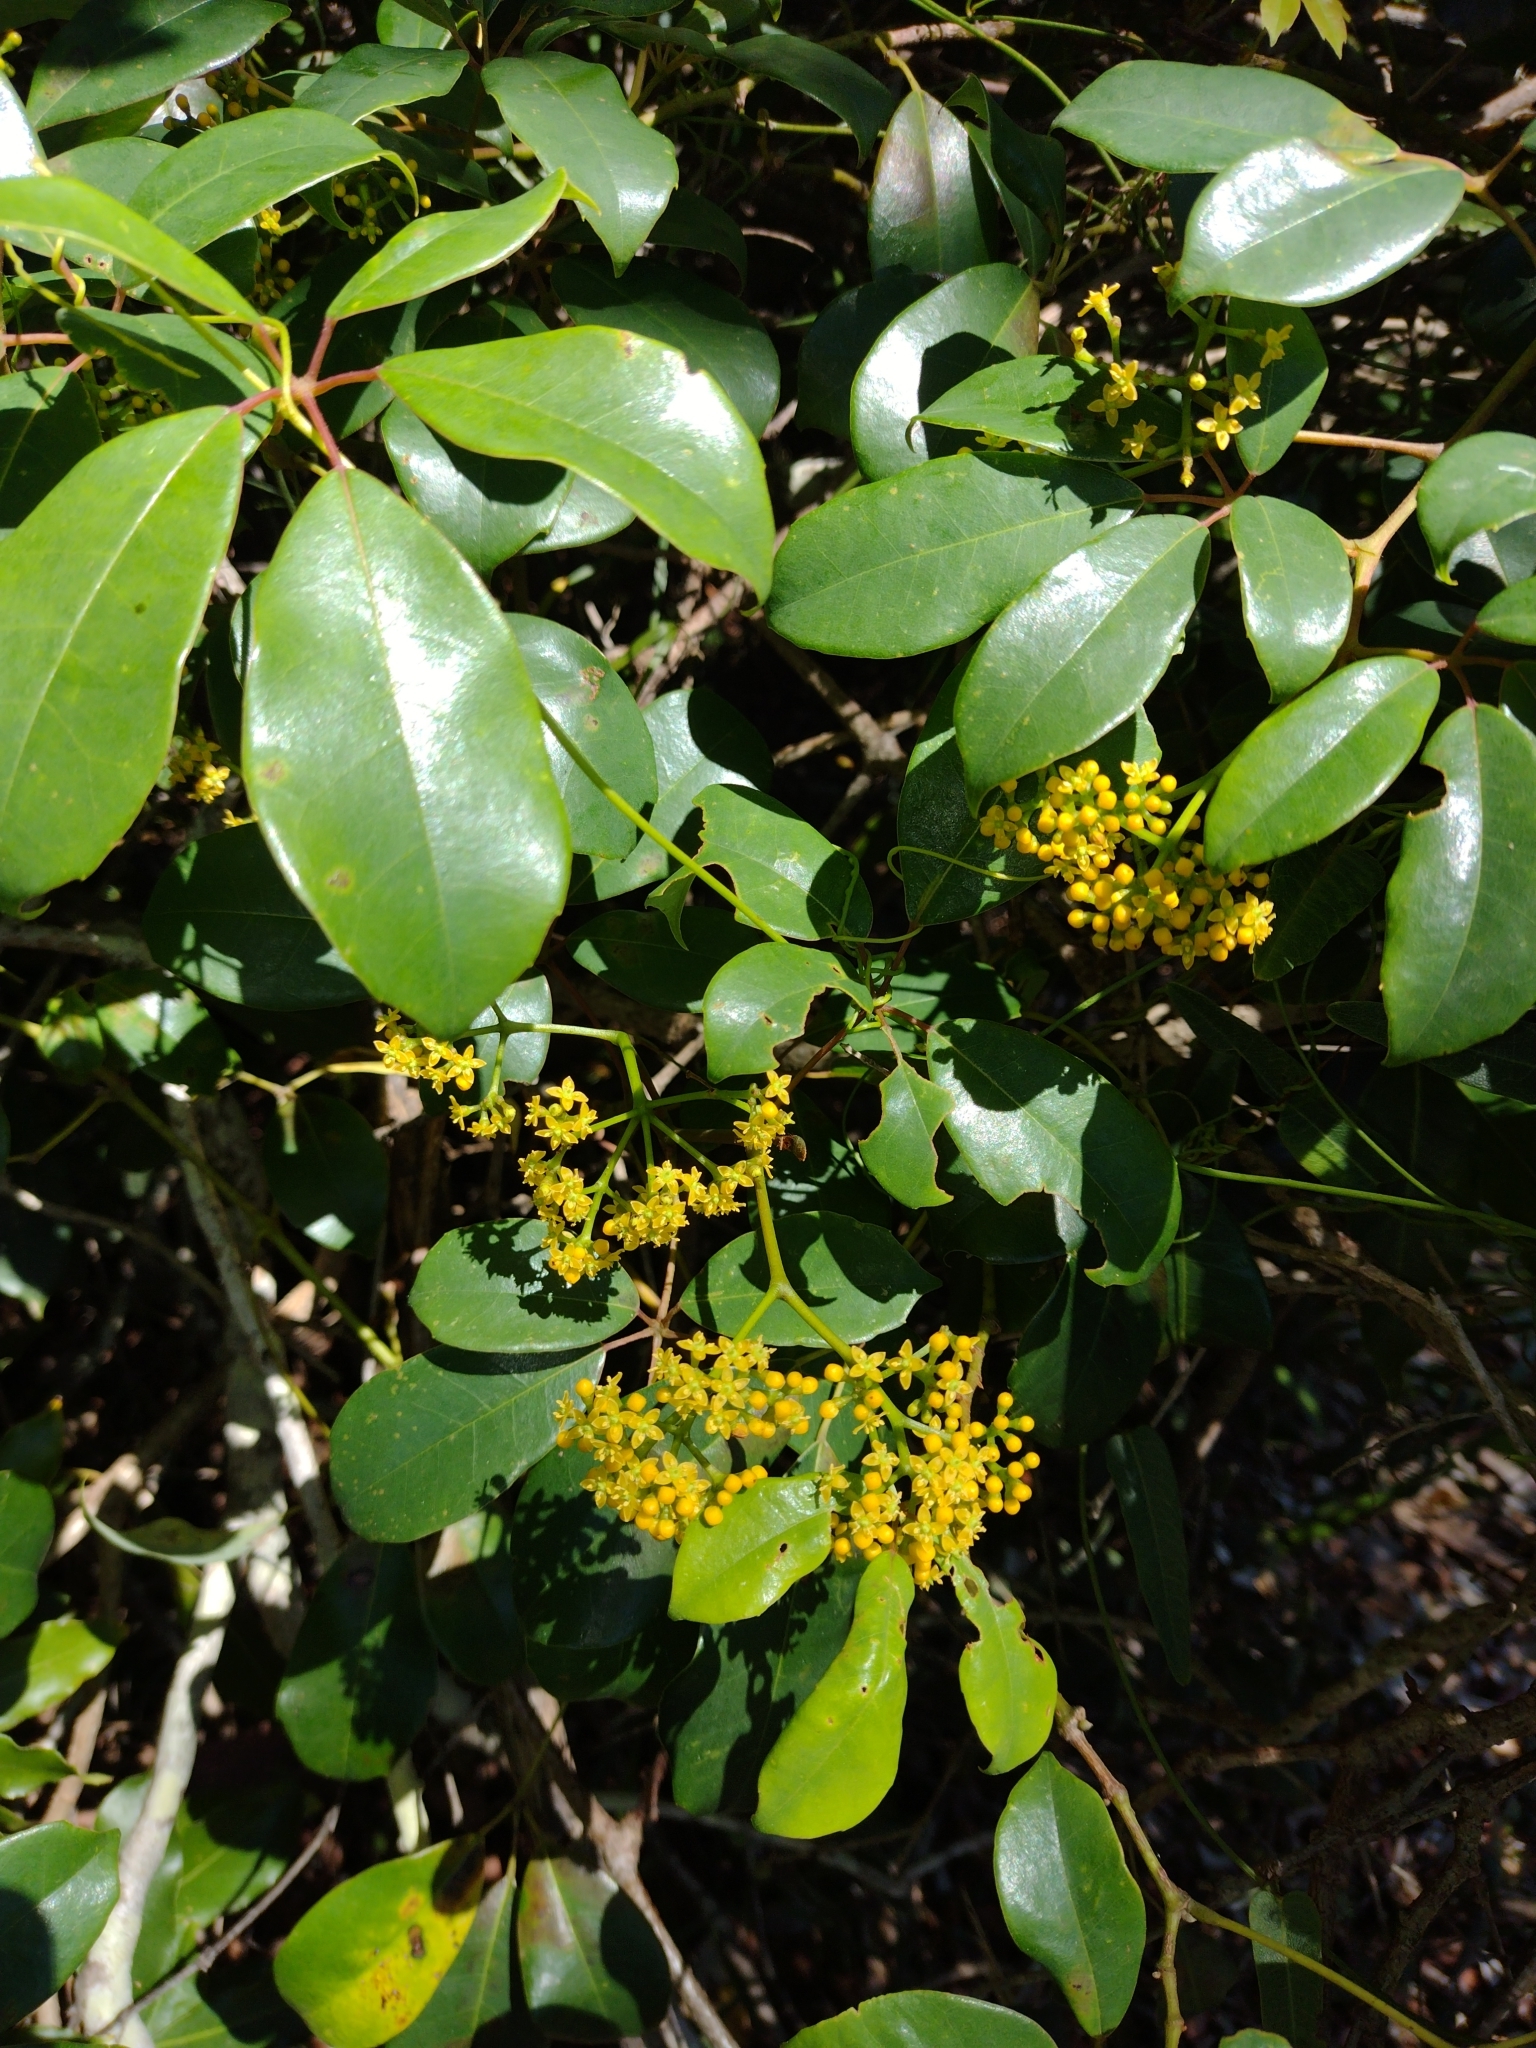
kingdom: Plantae
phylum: Tracheophyta
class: Magnoliopsida
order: Vitales
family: Vitaceae
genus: Nothocissus
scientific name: Nothocissus hypoglauca
